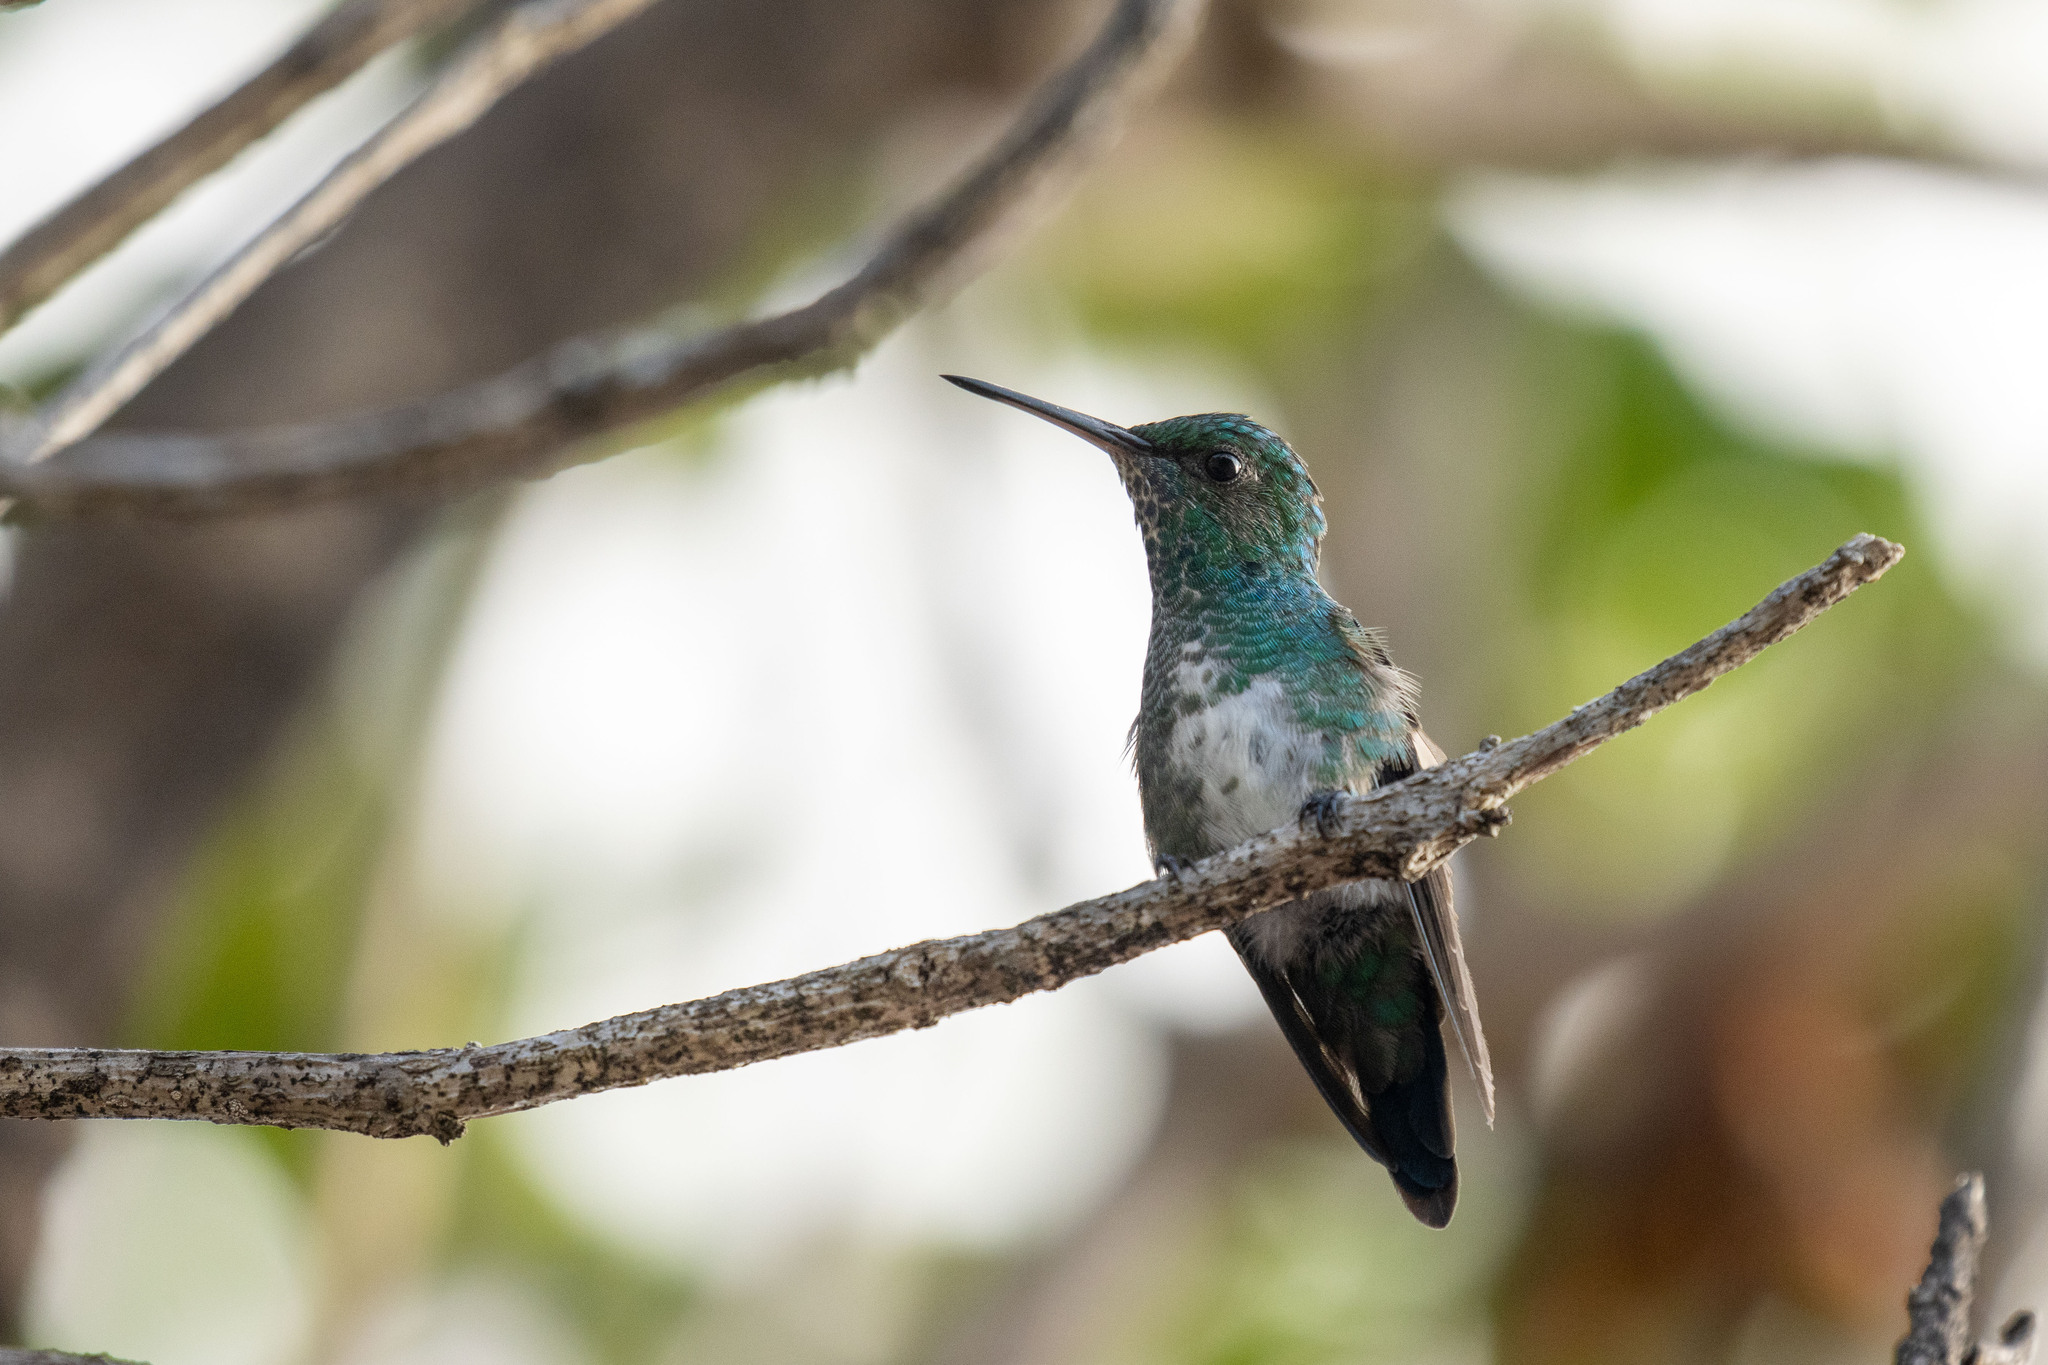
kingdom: Animalia
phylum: Chordata
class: Aves
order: Apodiformes
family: Trochilidae
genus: Chlorestes
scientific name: Chlorestes notata
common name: Blue-chinned sapphire
